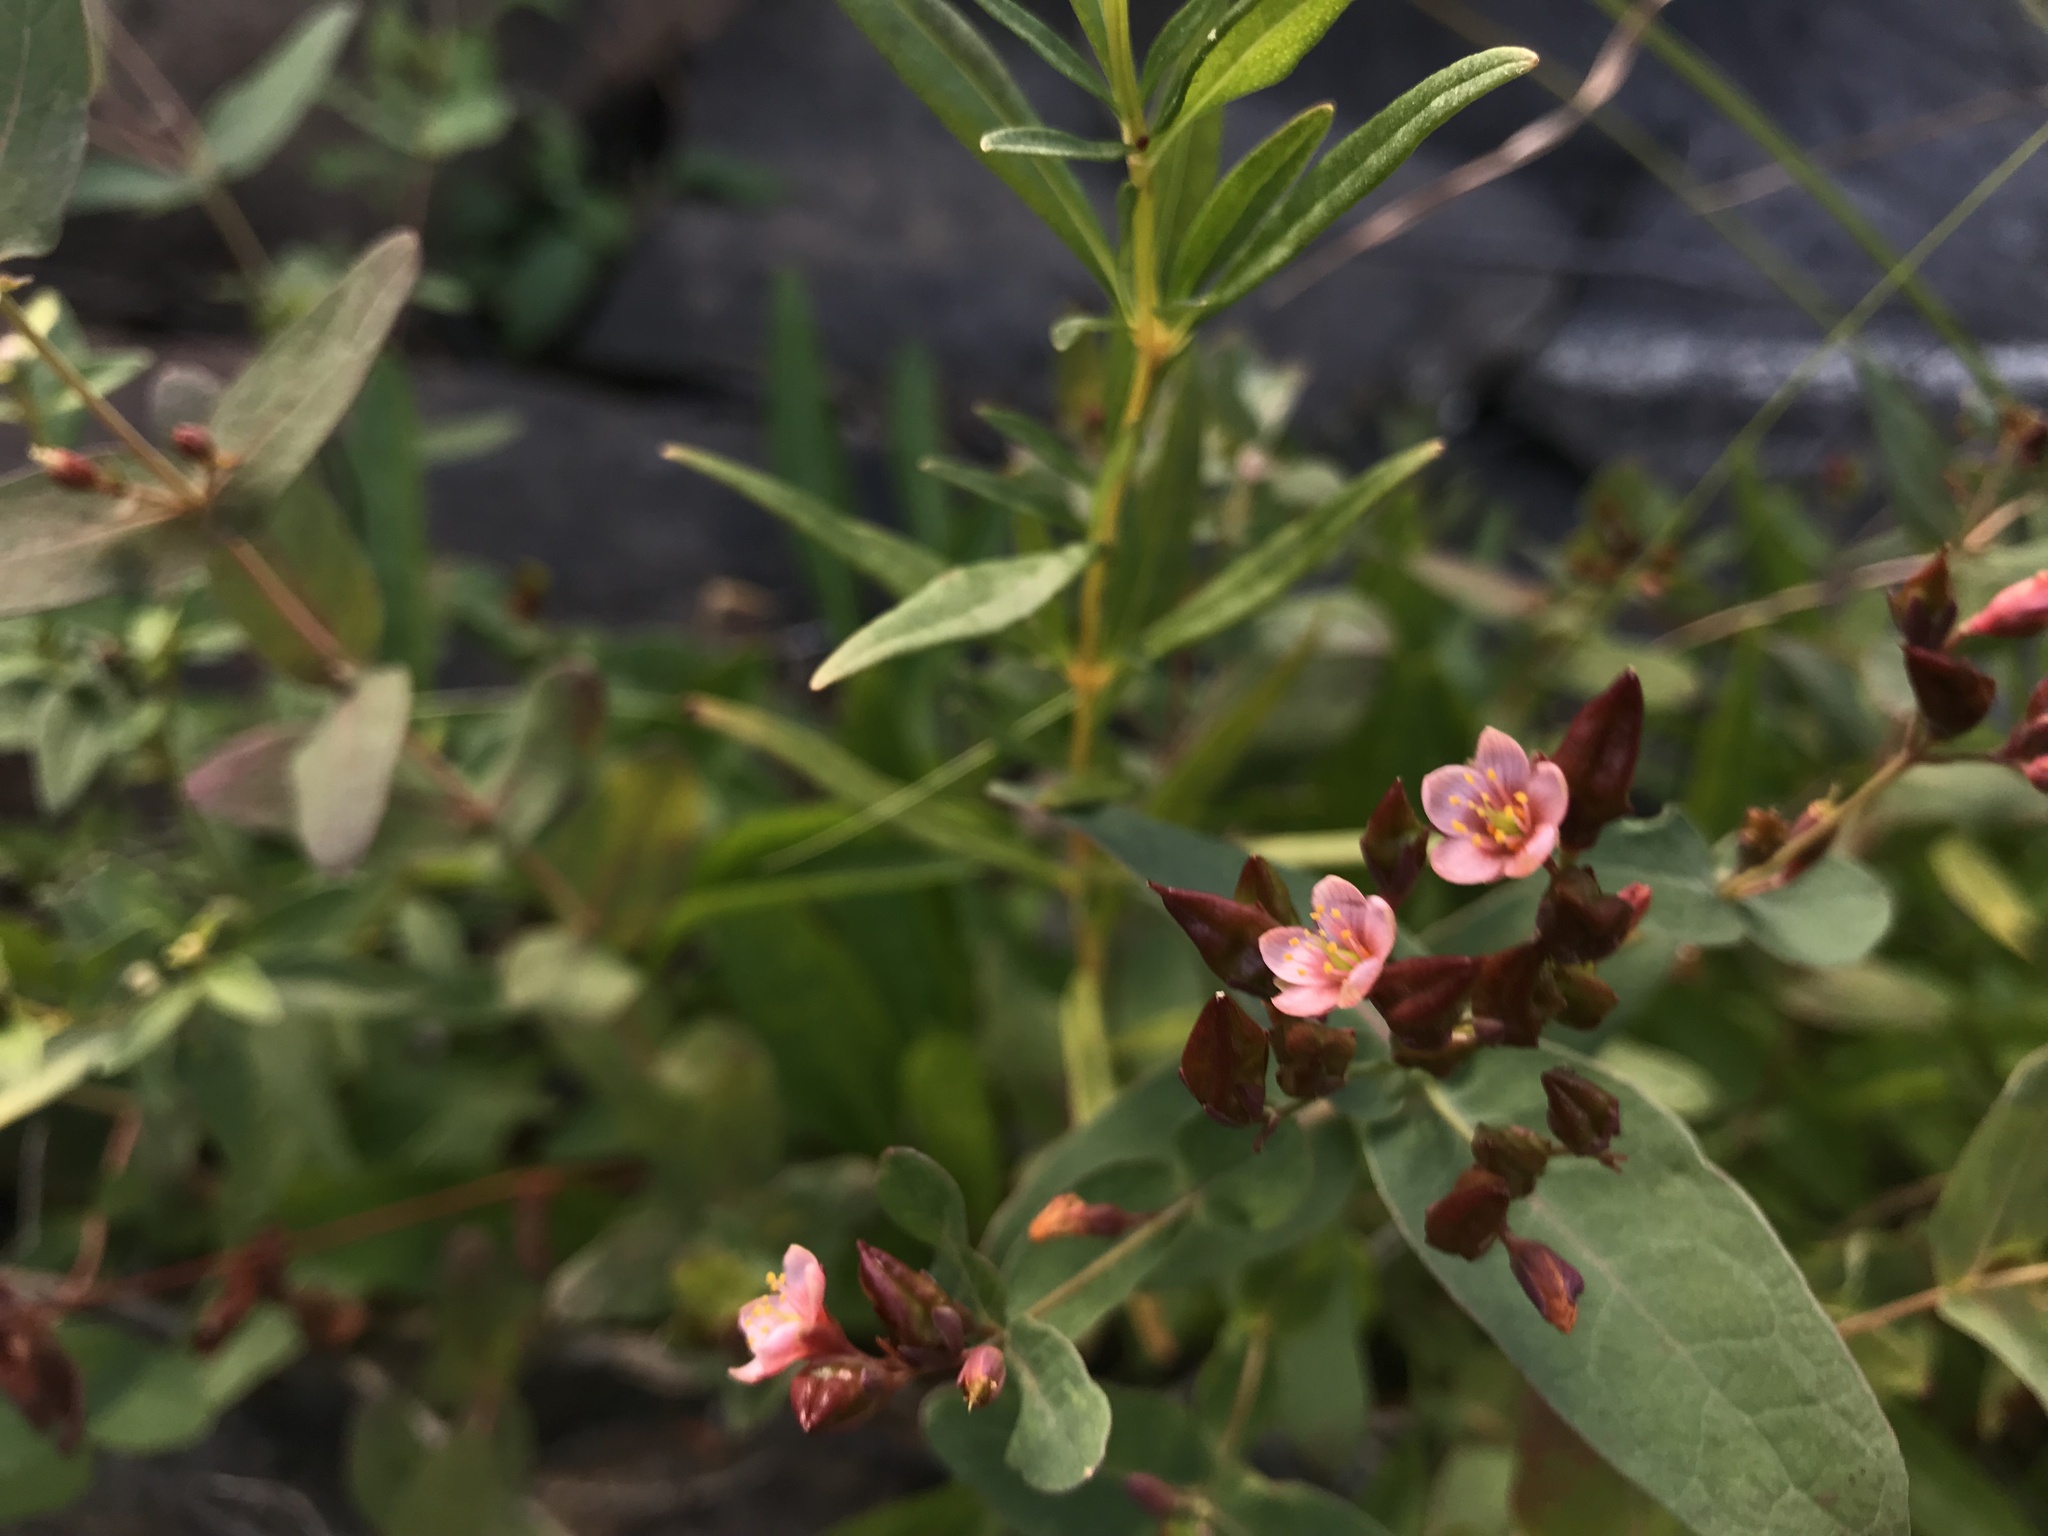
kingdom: Plantae
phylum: Tracheophyta
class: Magnoliopsida
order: Malpighiales
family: Hypericaceae
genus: Triadenum
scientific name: Triadenum fraseri
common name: Fraser's marsh st. johnswort
